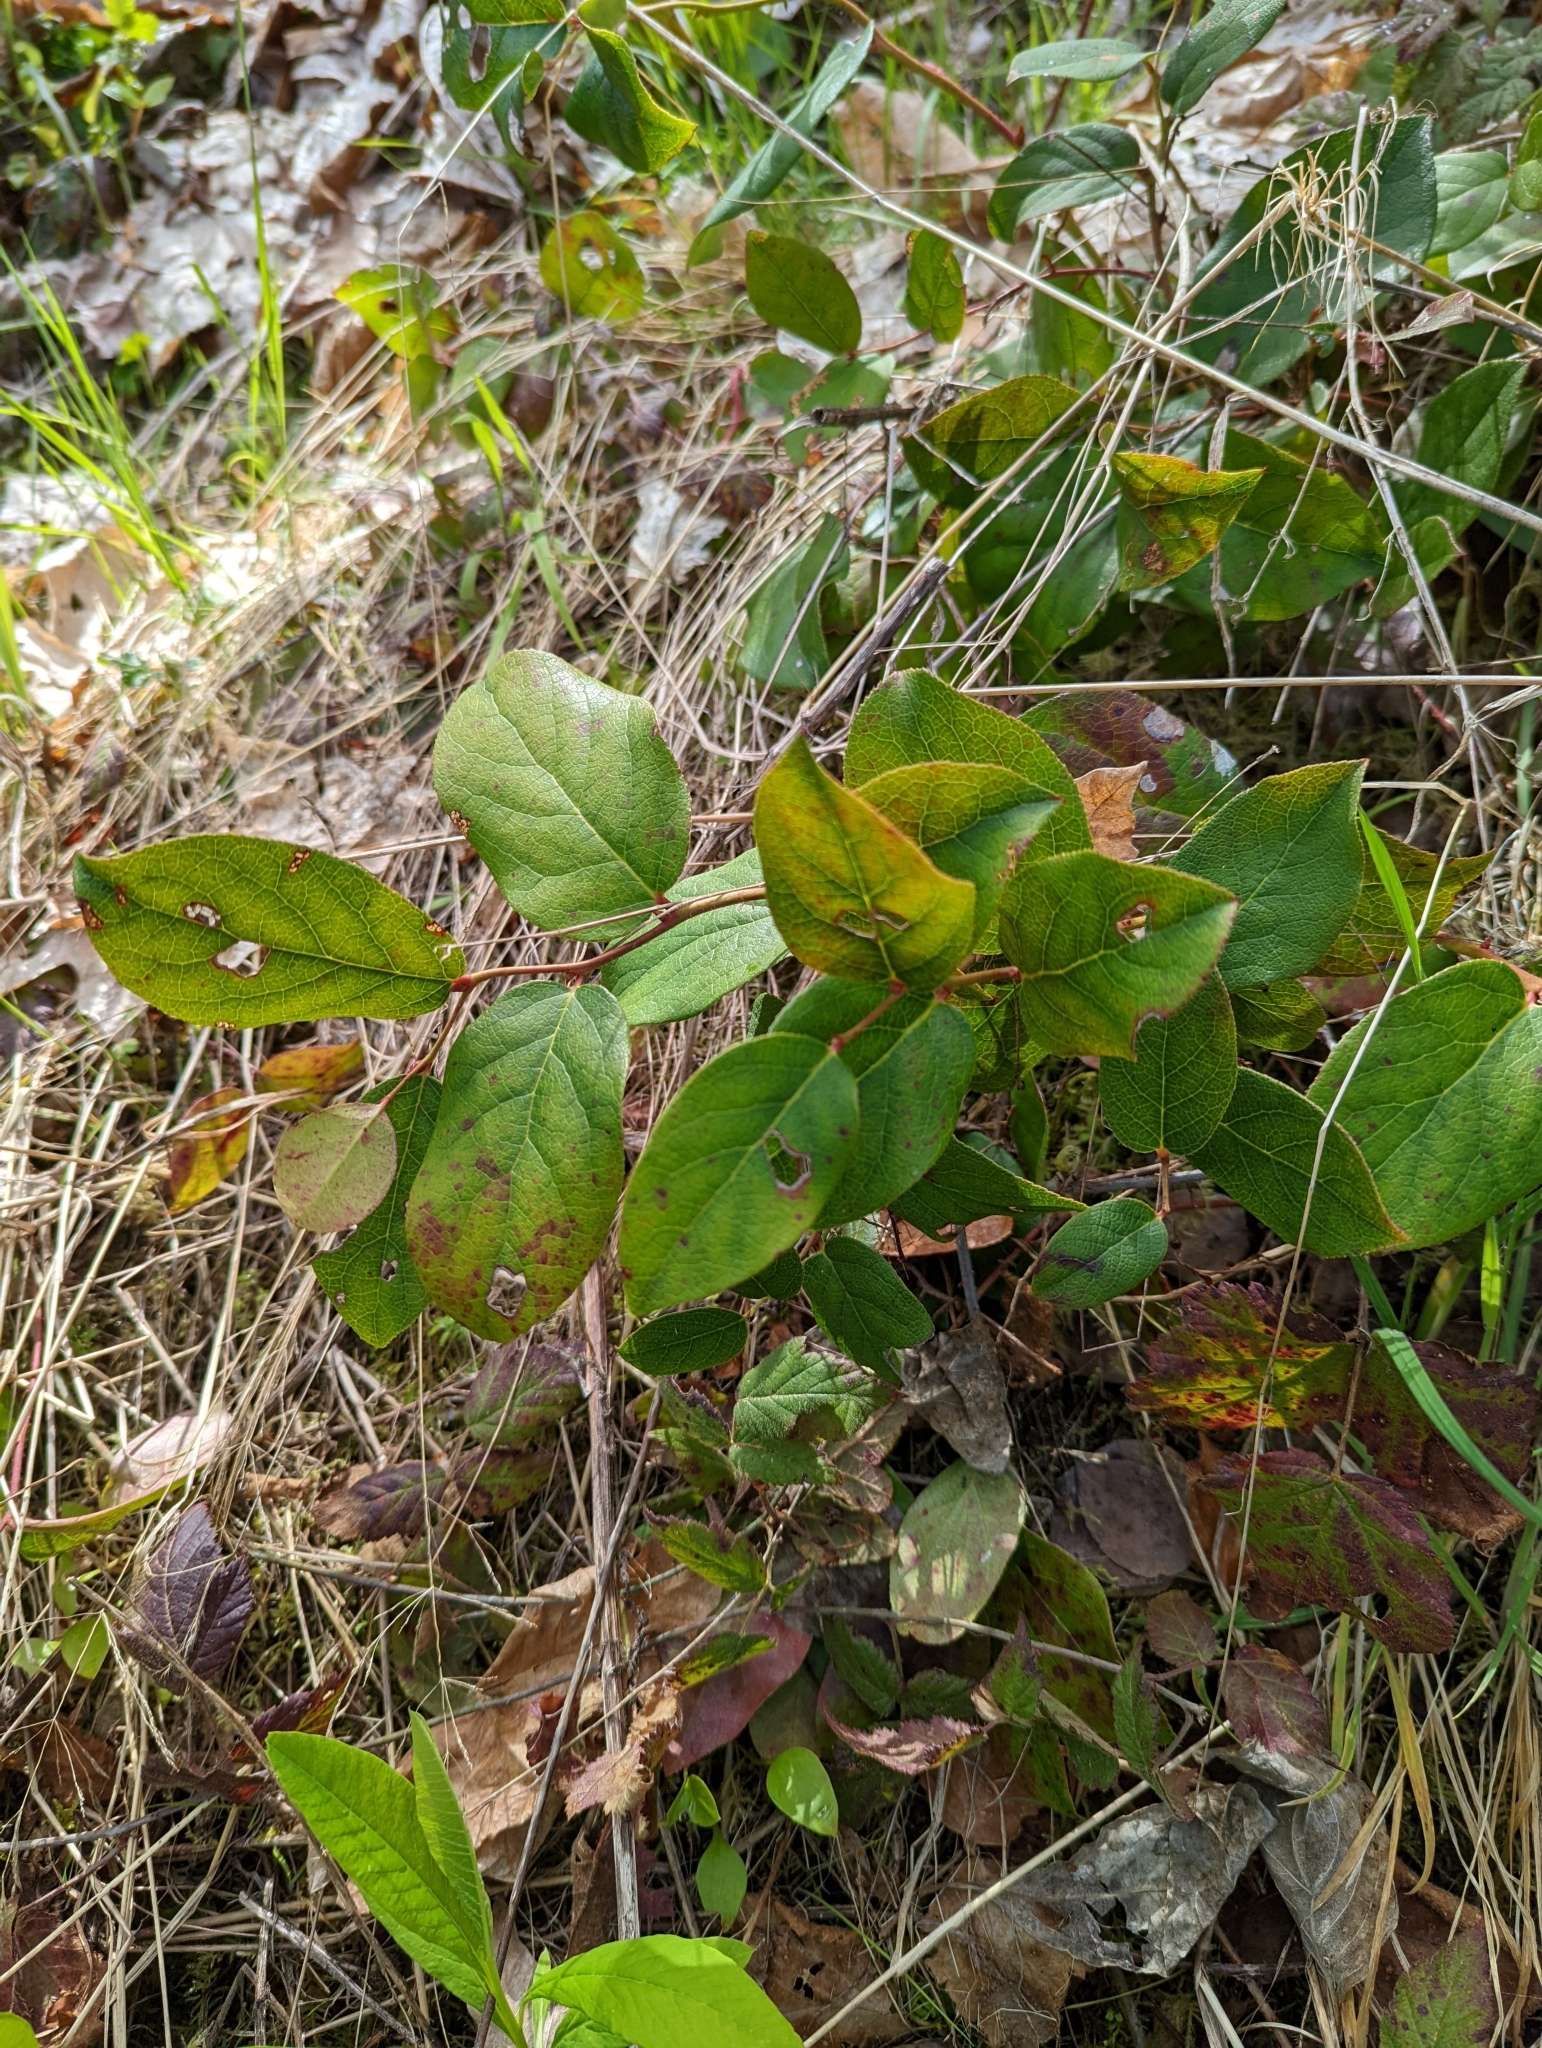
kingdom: Plantae
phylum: Tracheophyta
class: Magnoliopsida
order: Ericales
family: Ericaceae
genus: Gaultheria
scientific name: Gaultheria shallon
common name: Shallon
